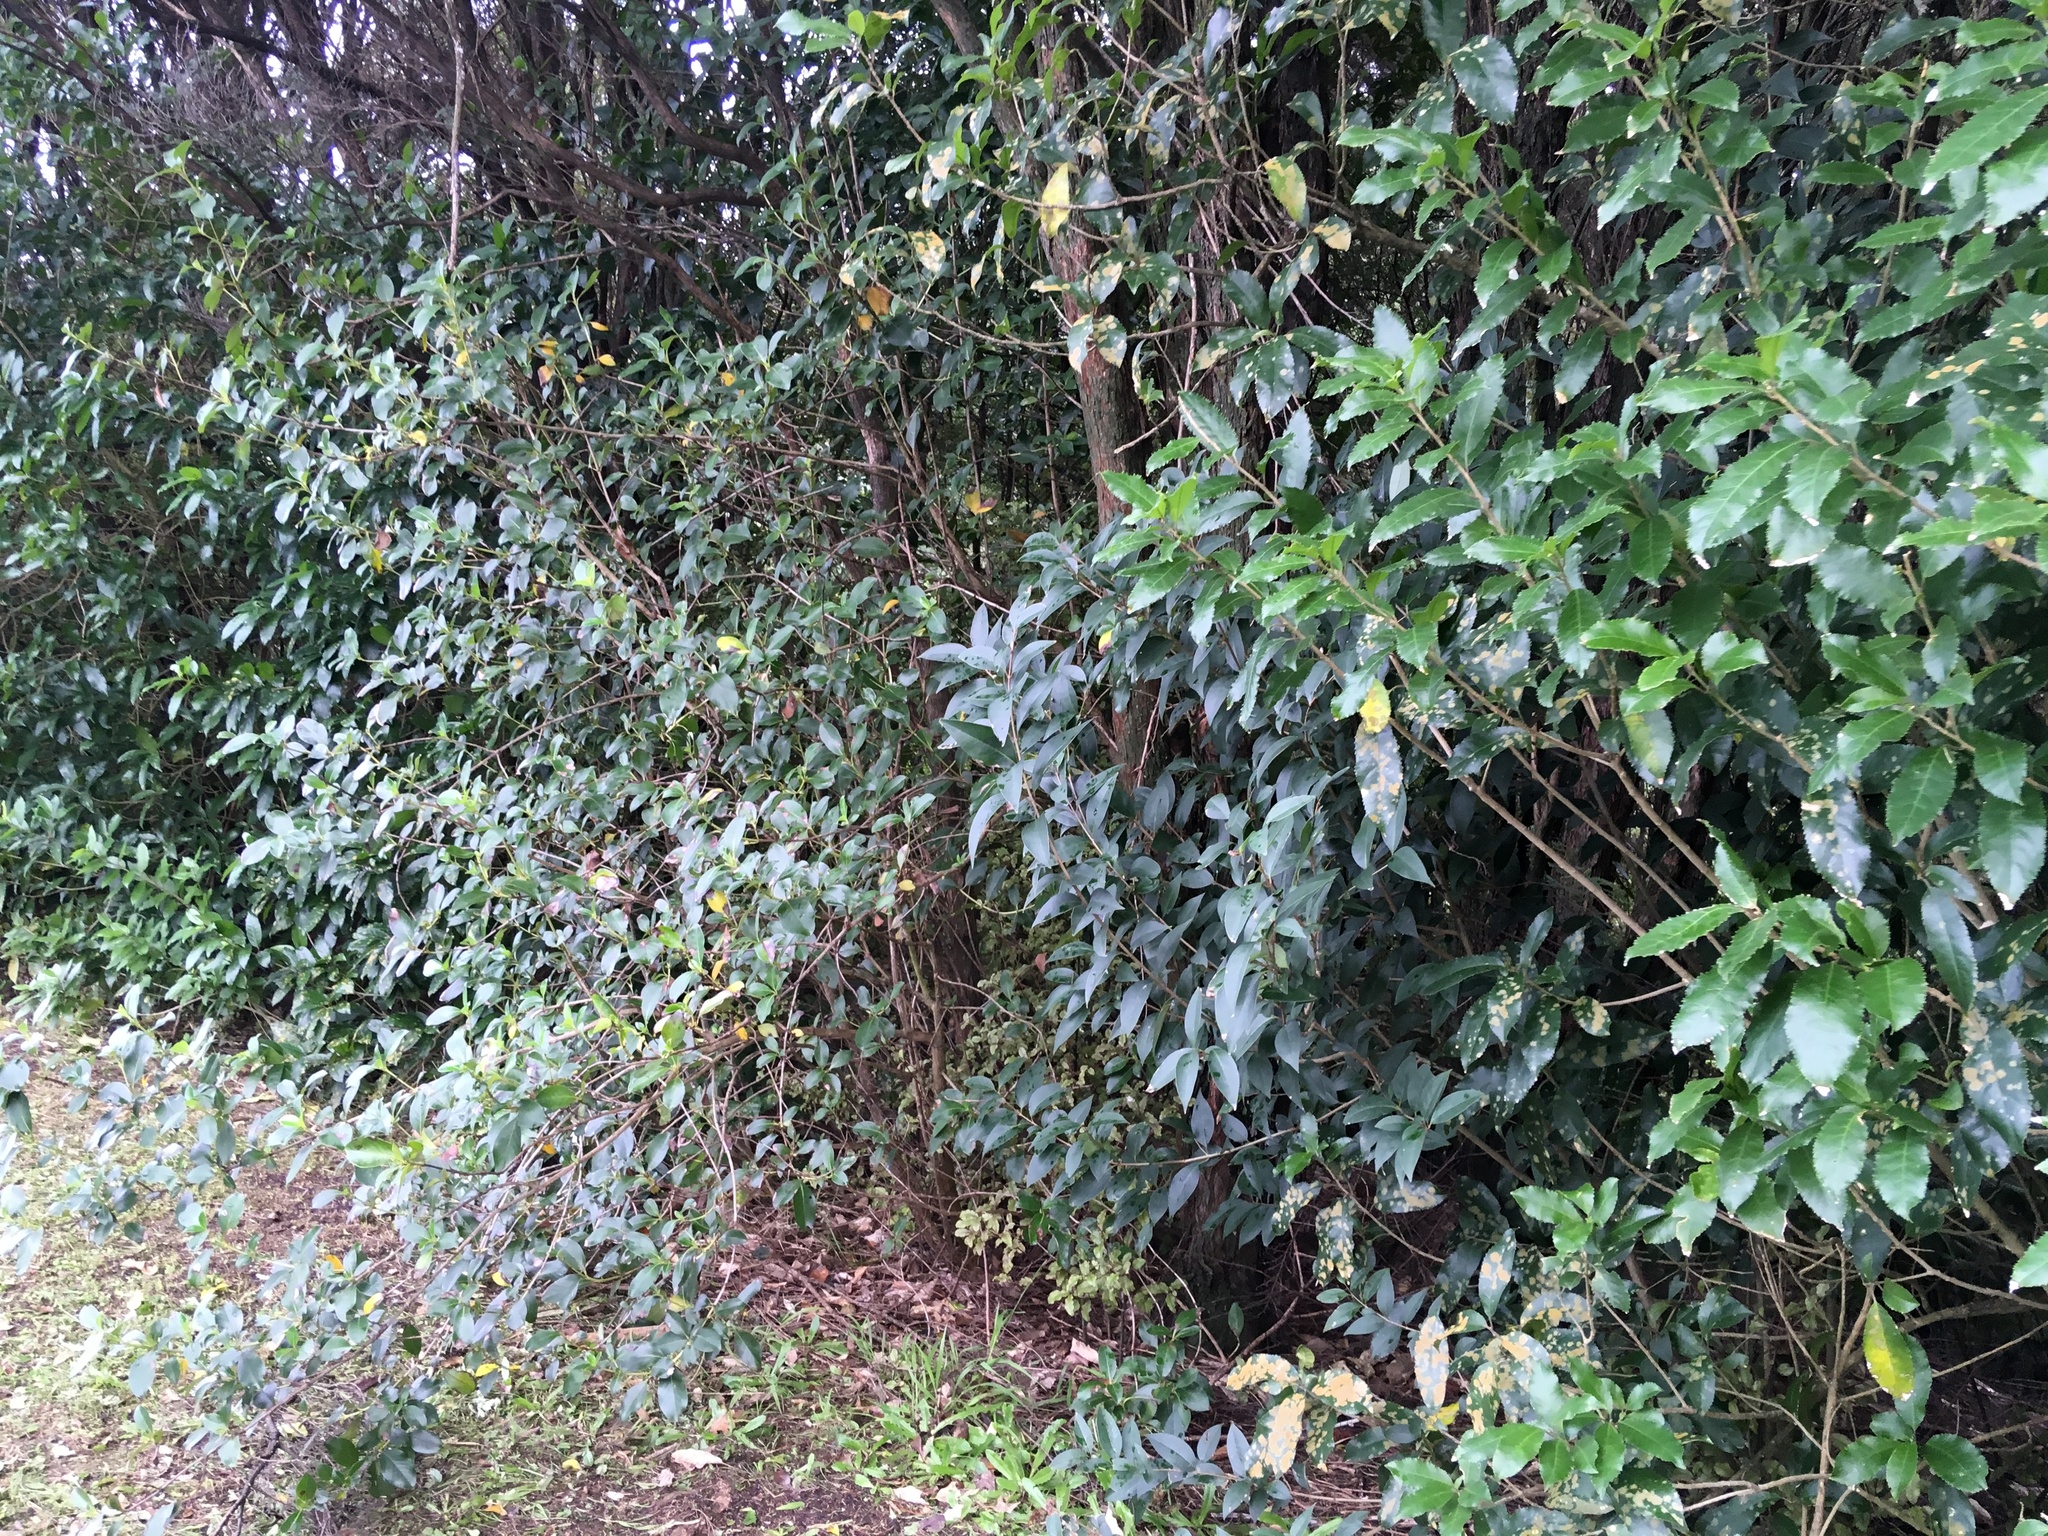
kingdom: Plantae
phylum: Tracheophyta
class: Magnoliopsida
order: Lamiales
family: Oleaceae
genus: Ligustrum
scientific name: Ligustrum lucidum
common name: Glossy privet
